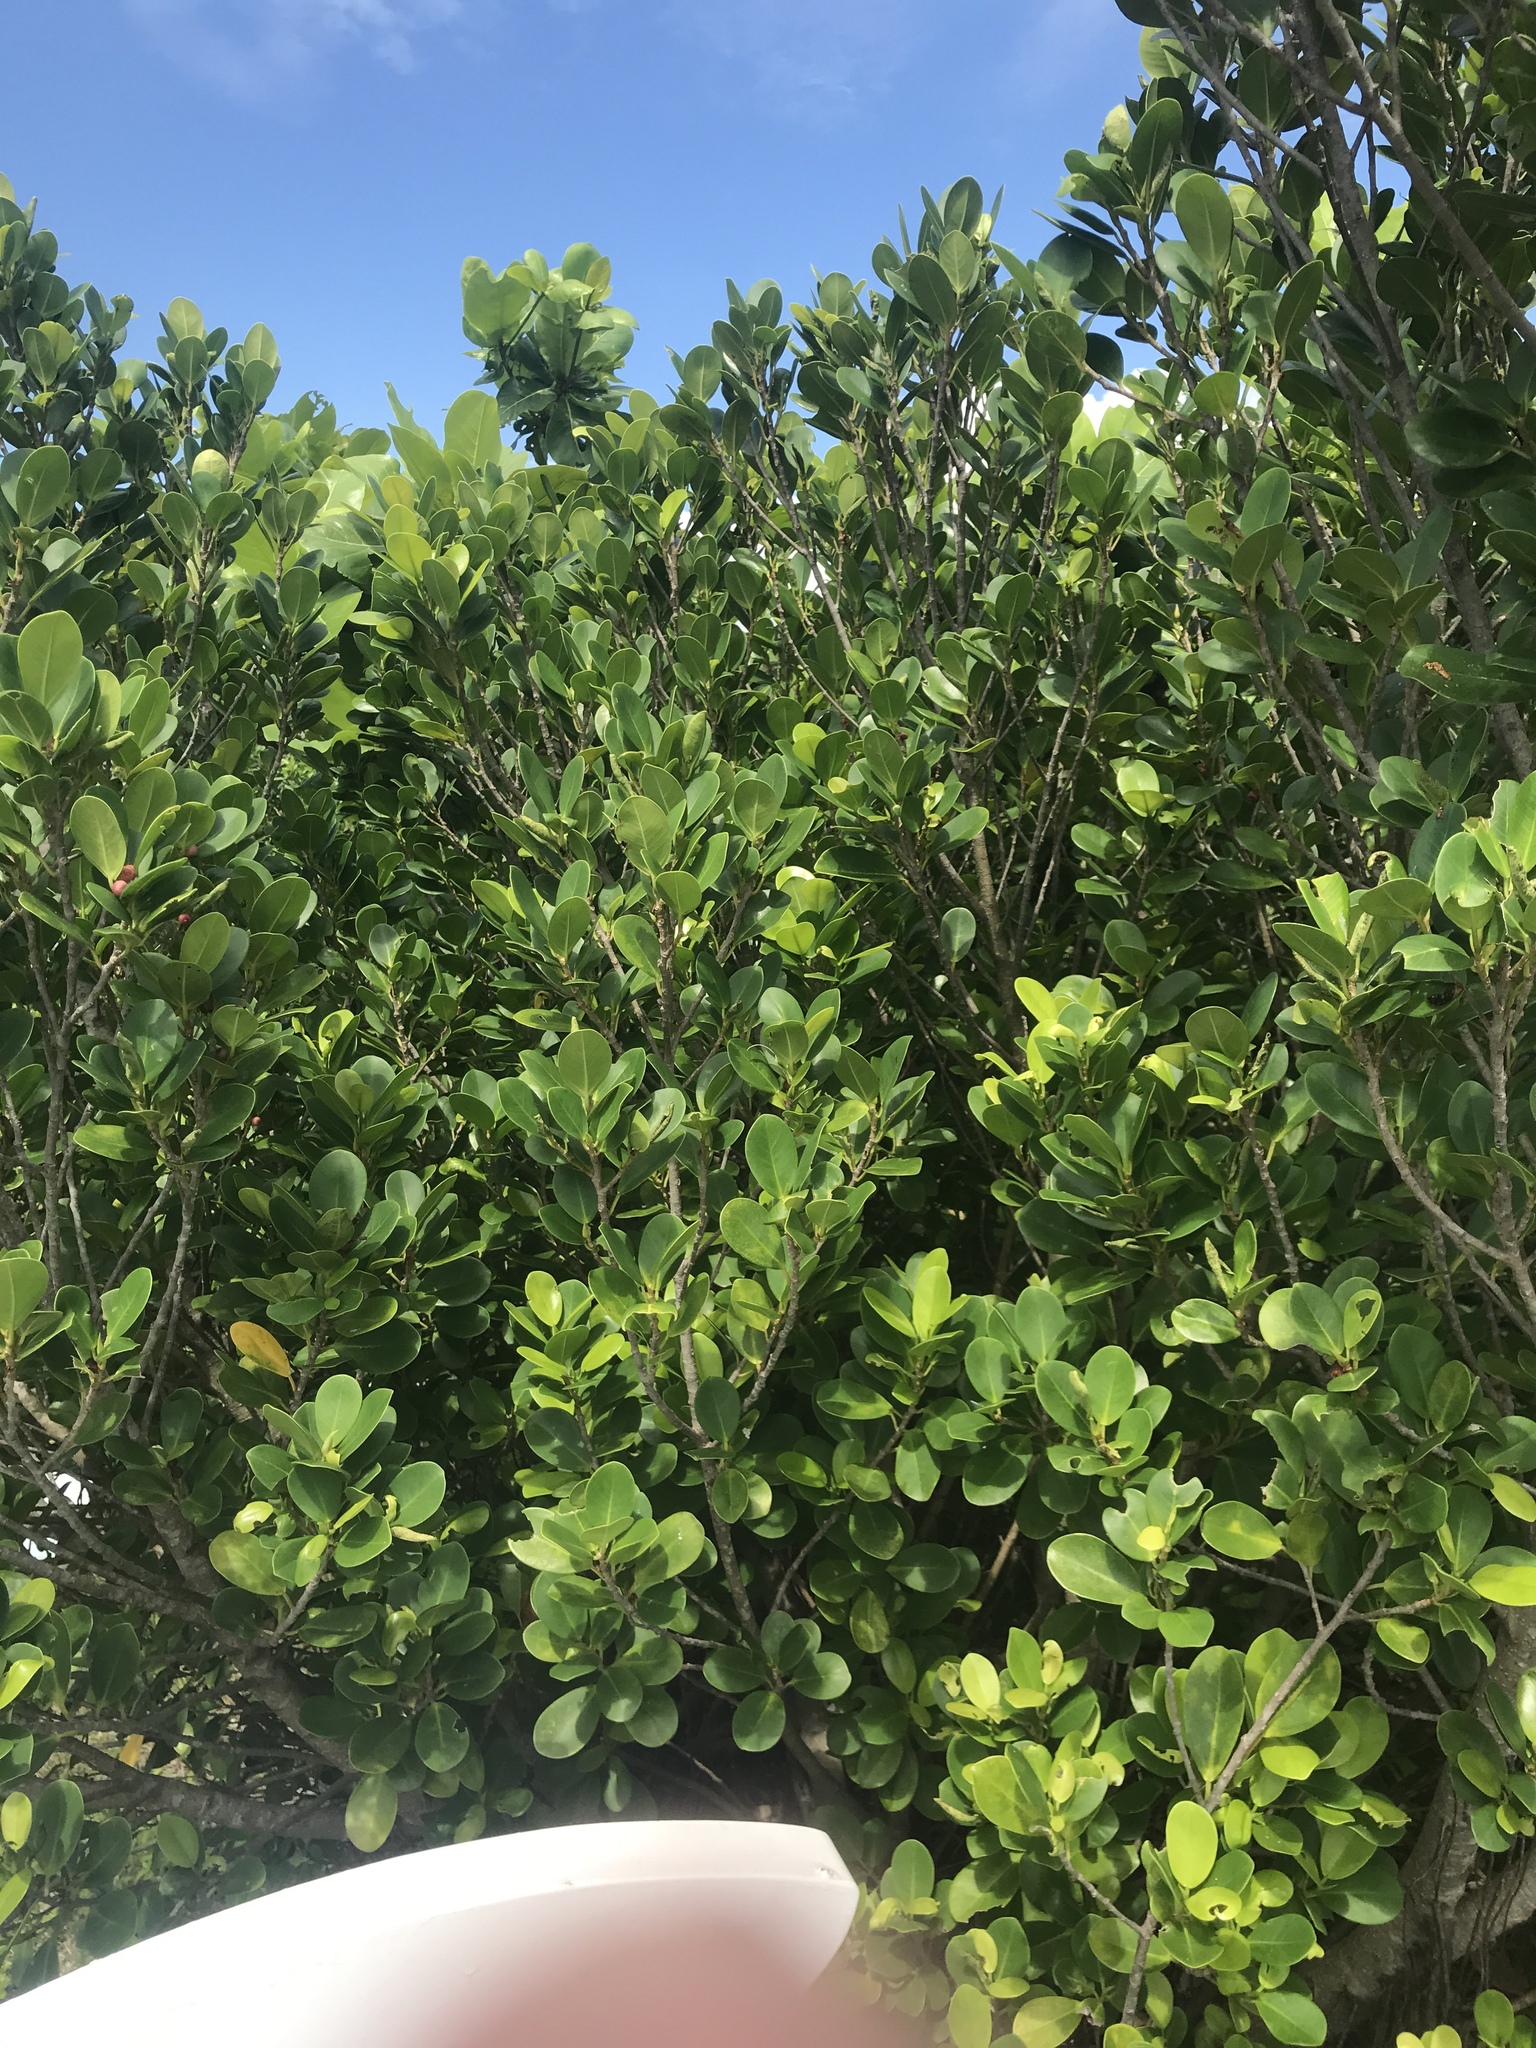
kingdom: Plantae
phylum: Tracheophyta
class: Magnoliopsida
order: Rosales
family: Moraceae
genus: Ficus
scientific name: Ficus microcarpa
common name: Chinese banyan
